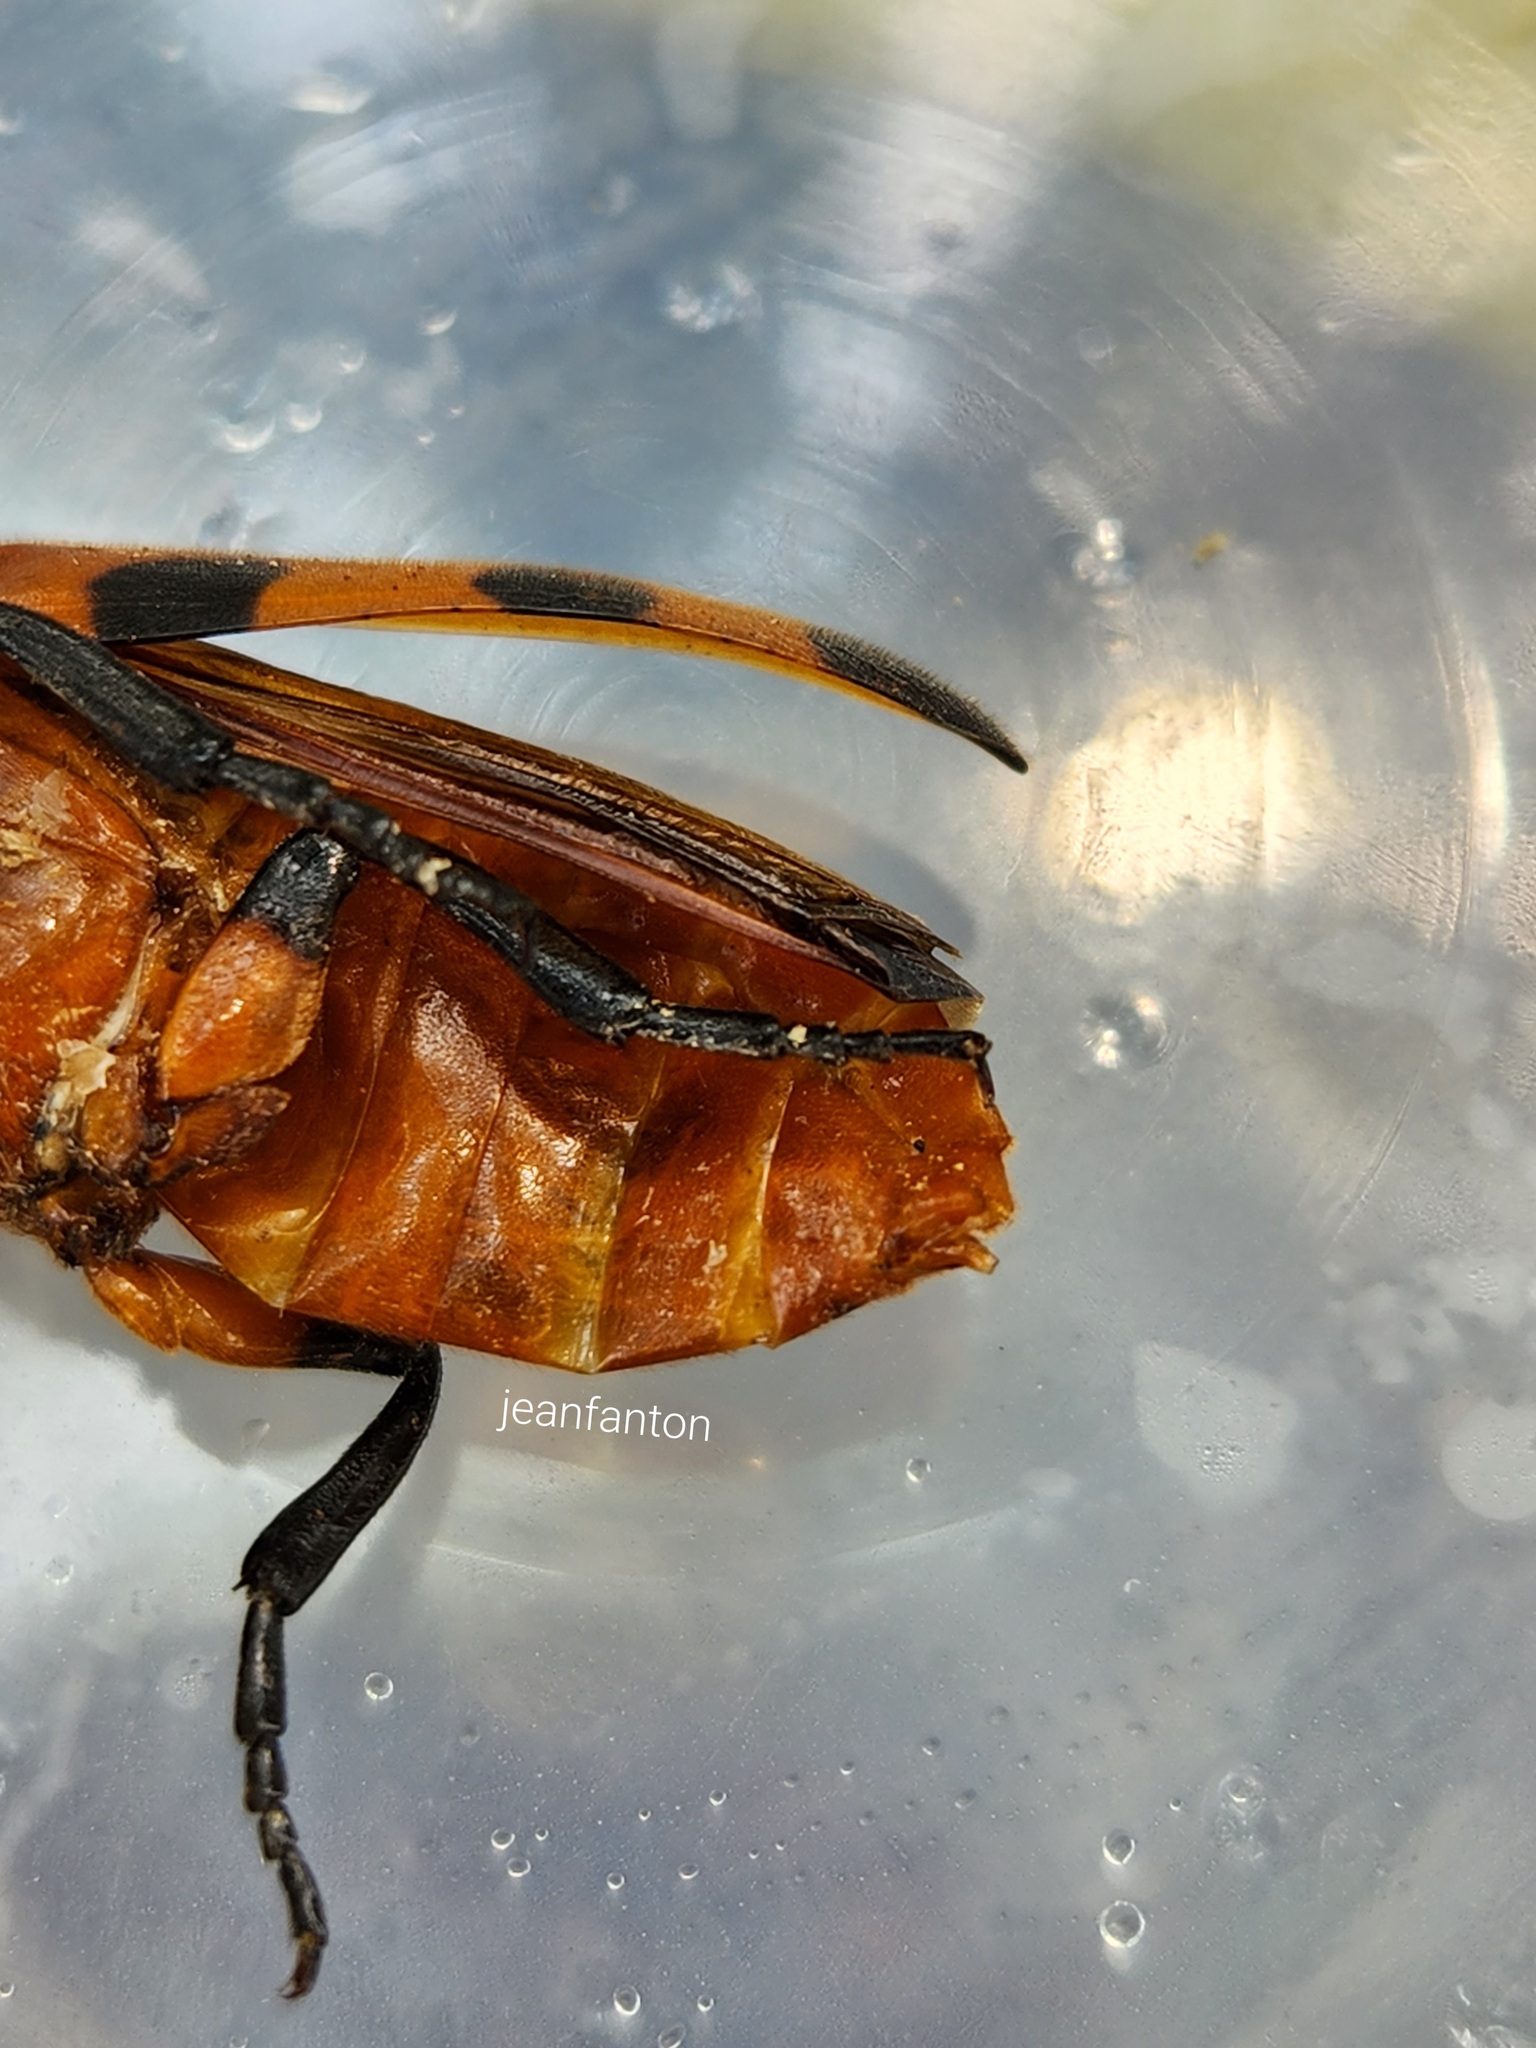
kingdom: Animalia
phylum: Arthropoda
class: Insecta
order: Coleoptera
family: Meloidae
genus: Cissites
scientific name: Cissites maculata
